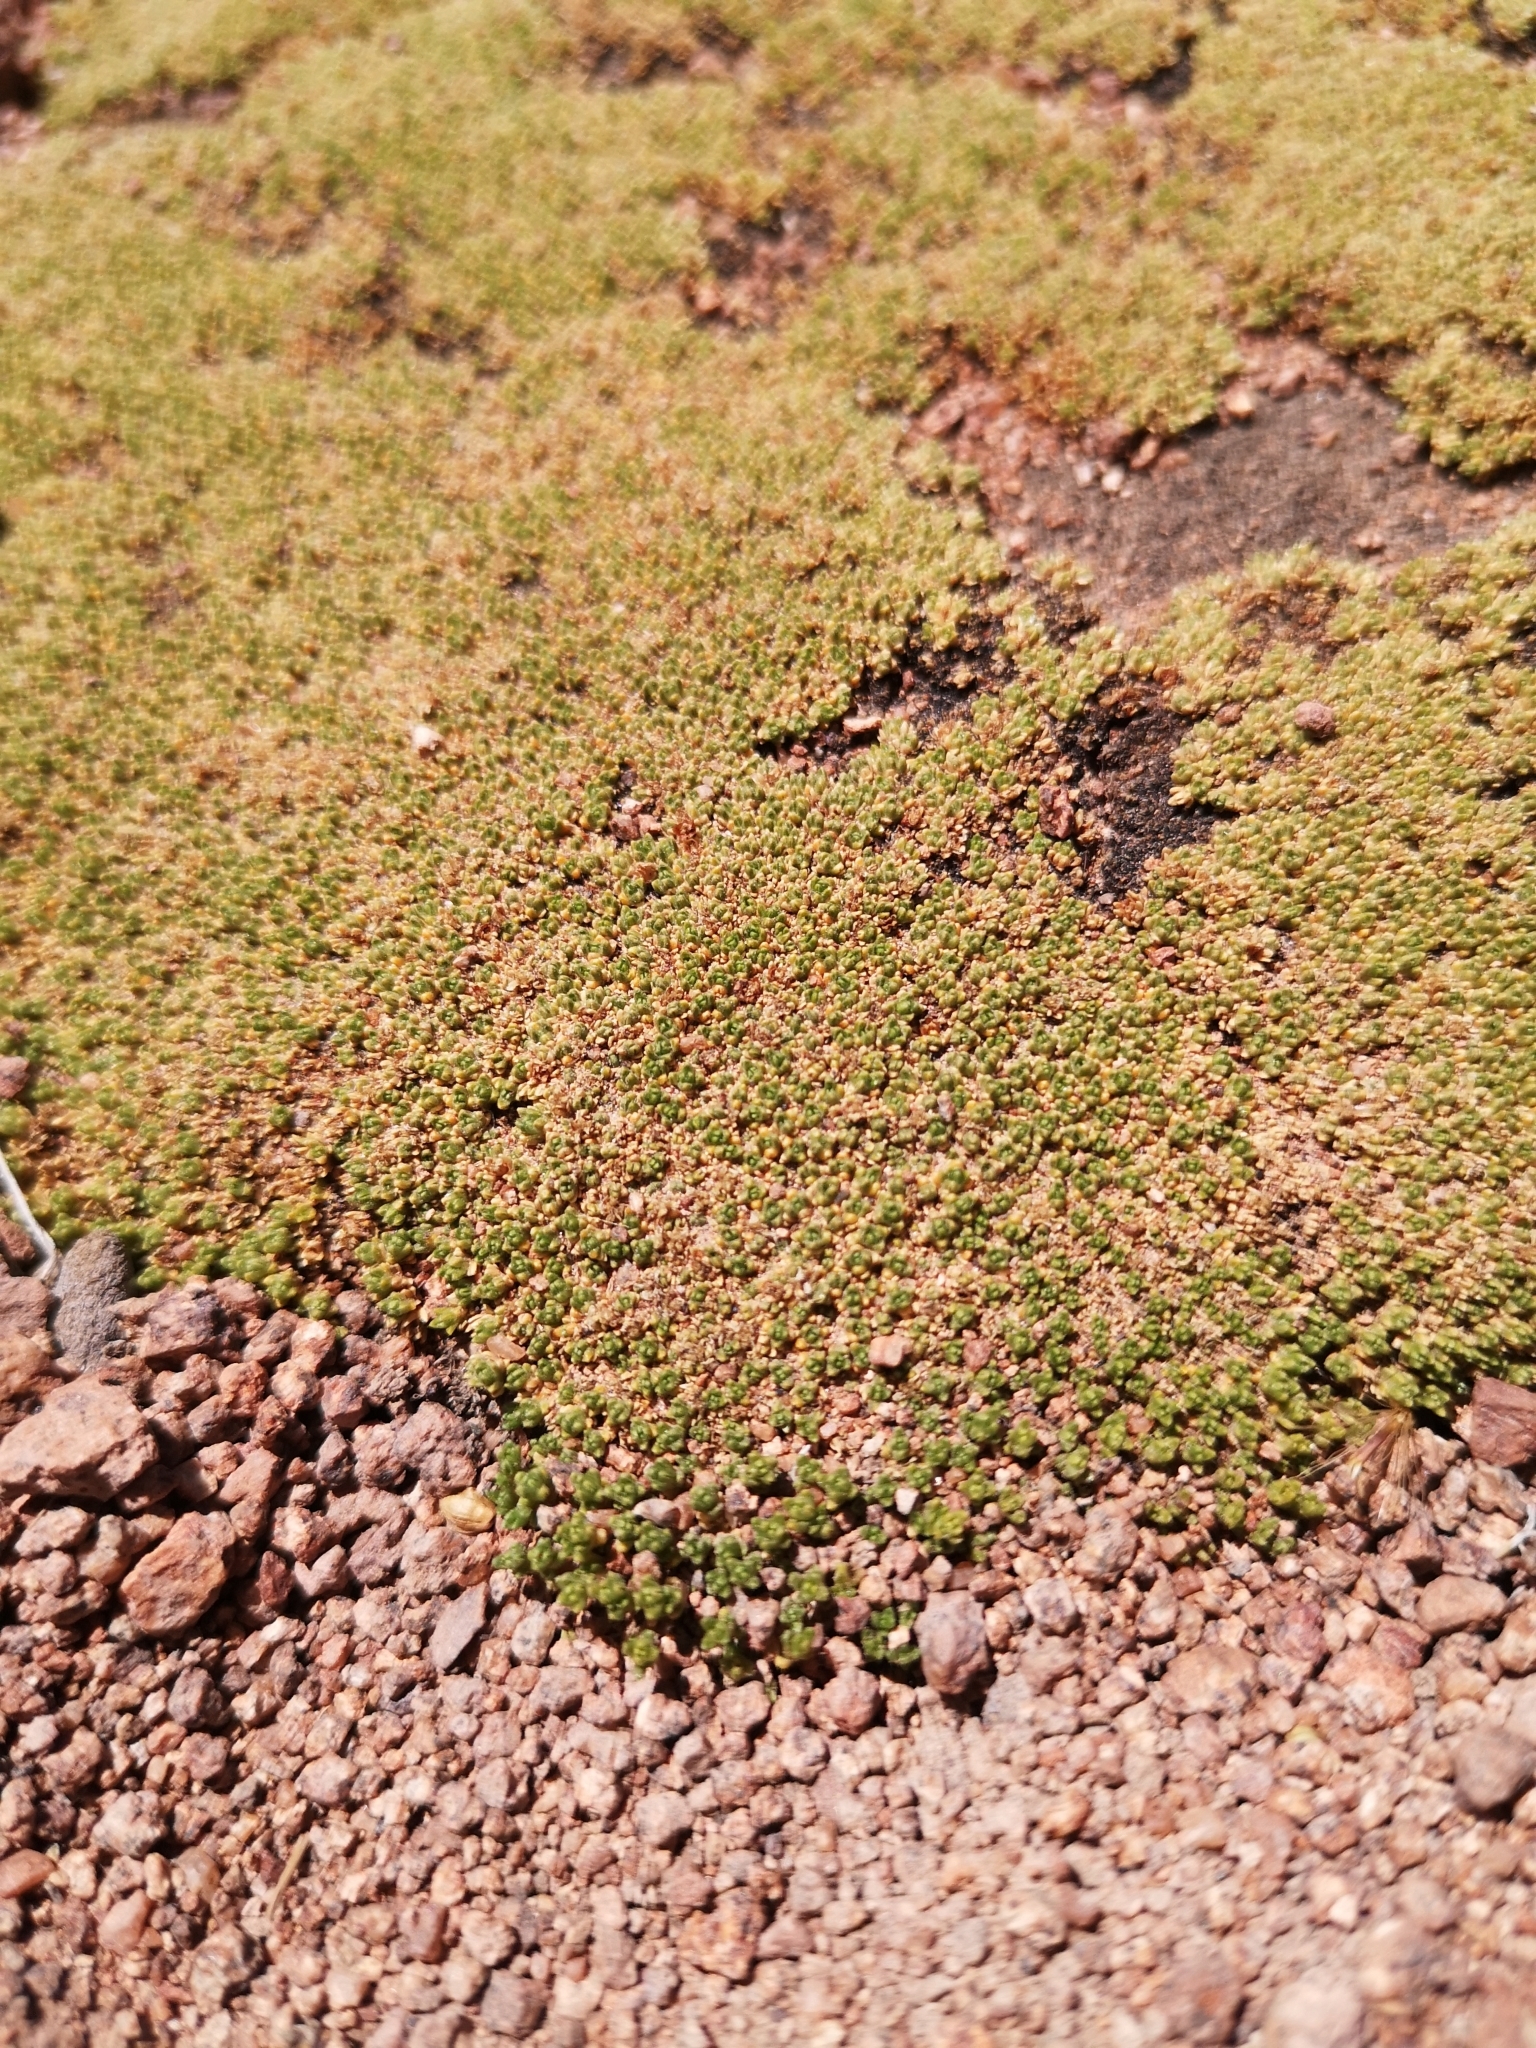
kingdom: Plantae
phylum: Tracheophyta
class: Magnoliopsida
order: Caryophyllales
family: Frankeniaceae
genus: Frankenia
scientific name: Frankenia triandra
